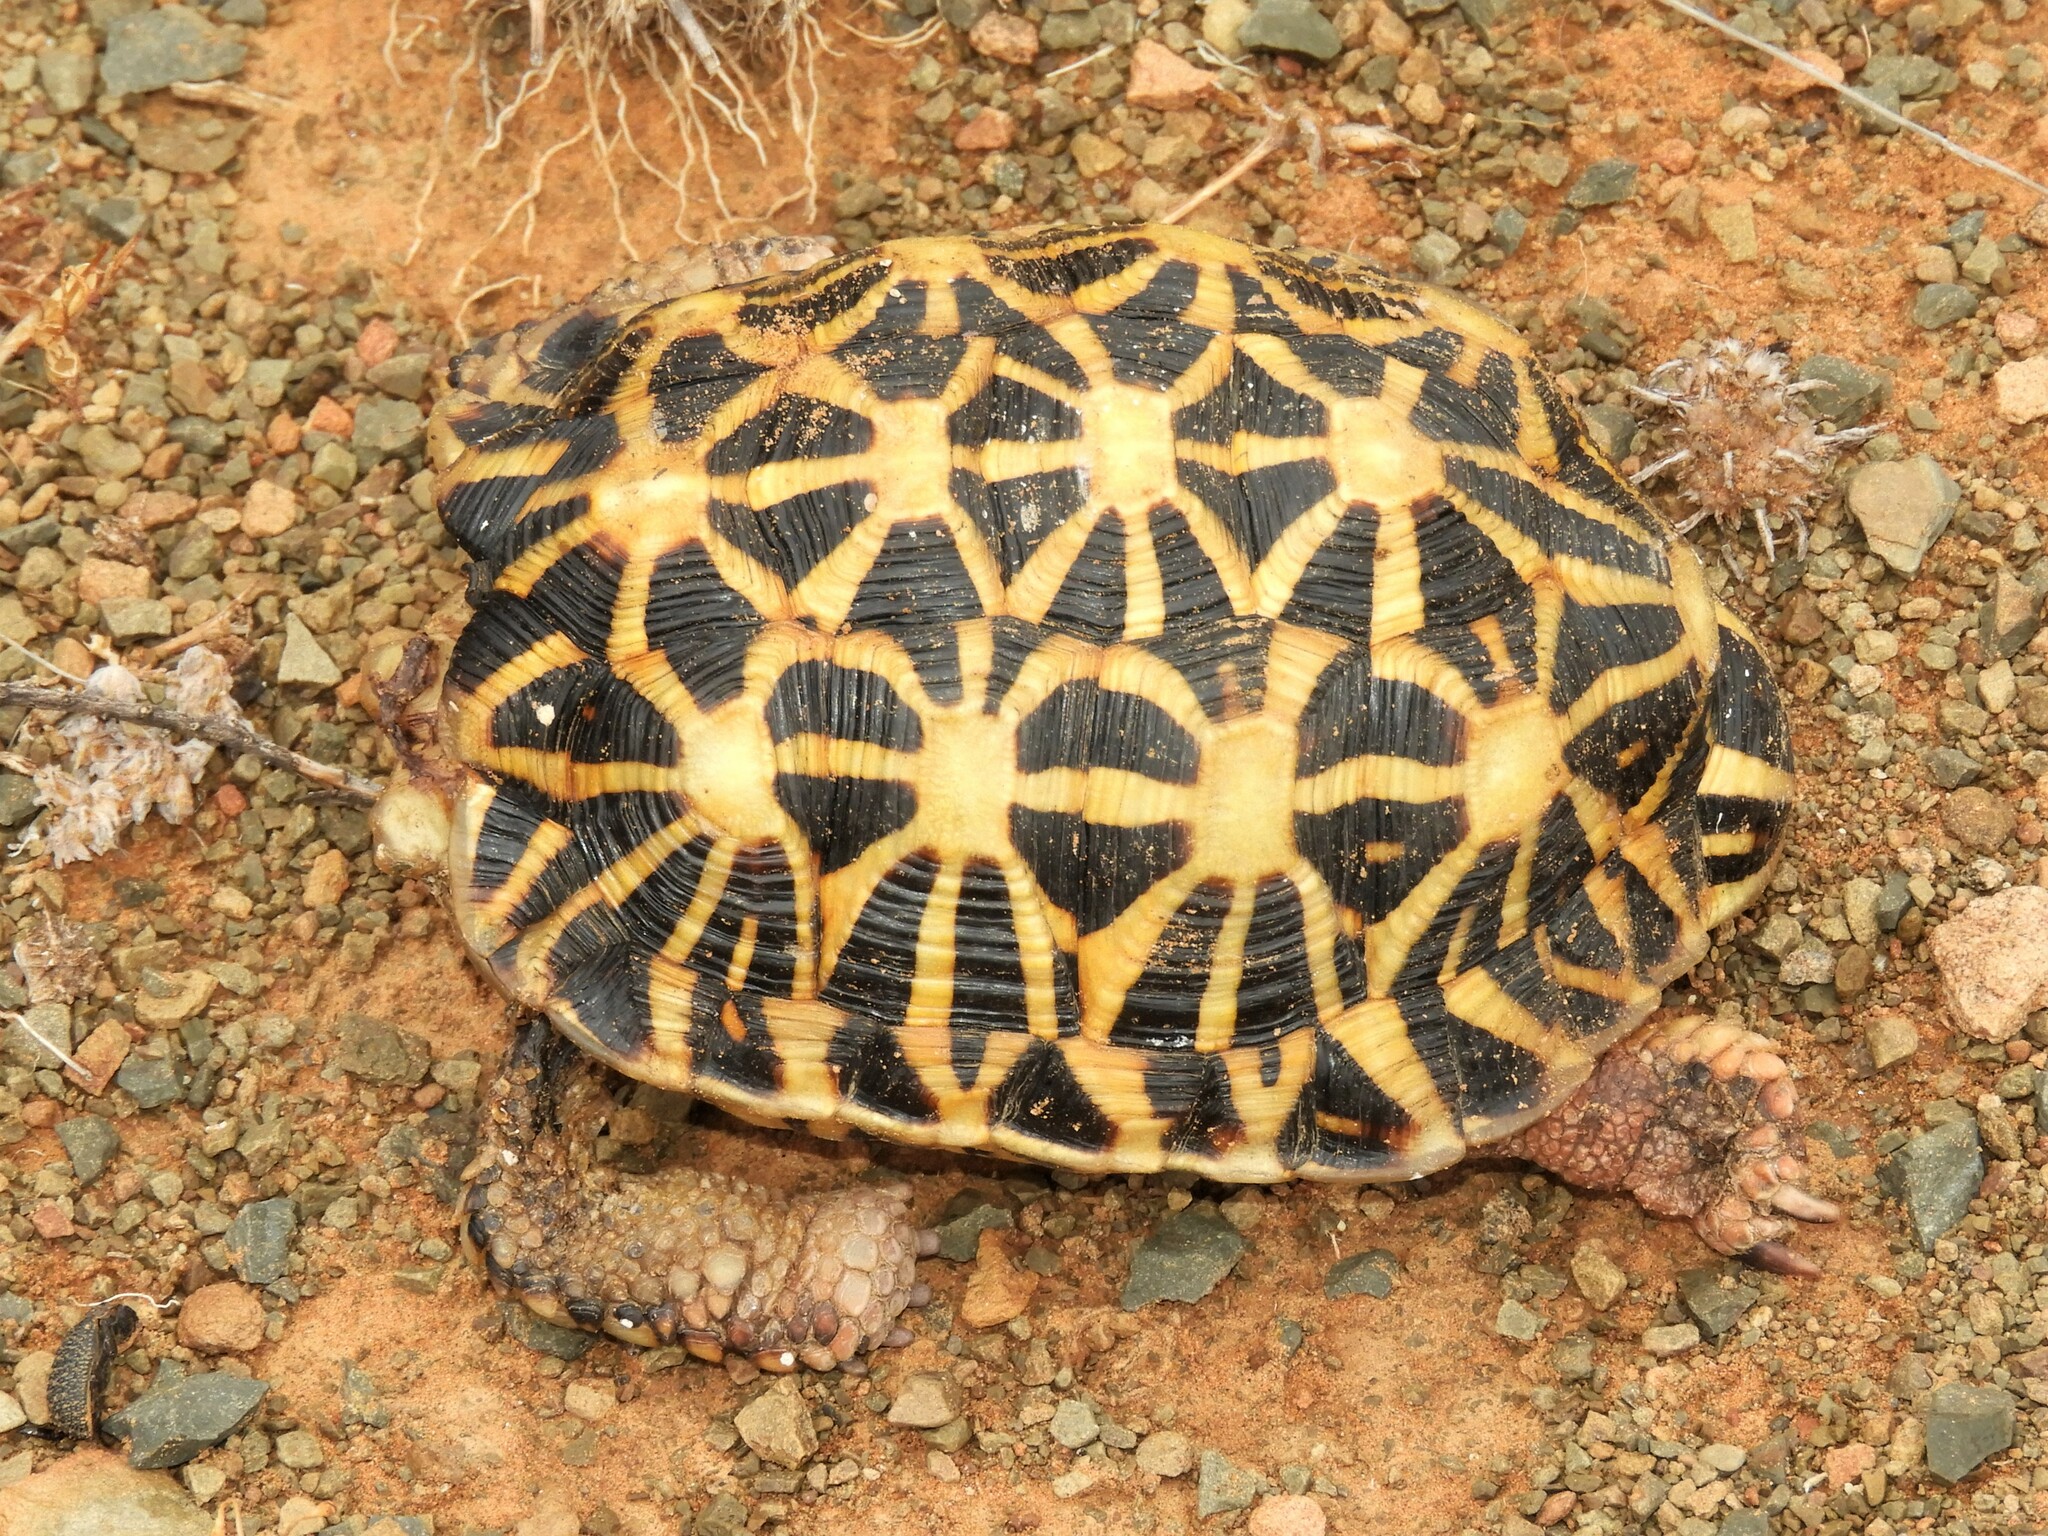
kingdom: Animalia
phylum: Chordata
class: Testudines
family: Testudinidae
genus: Psammobates
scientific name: Psammobates tentorius
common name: Tent tortoise
